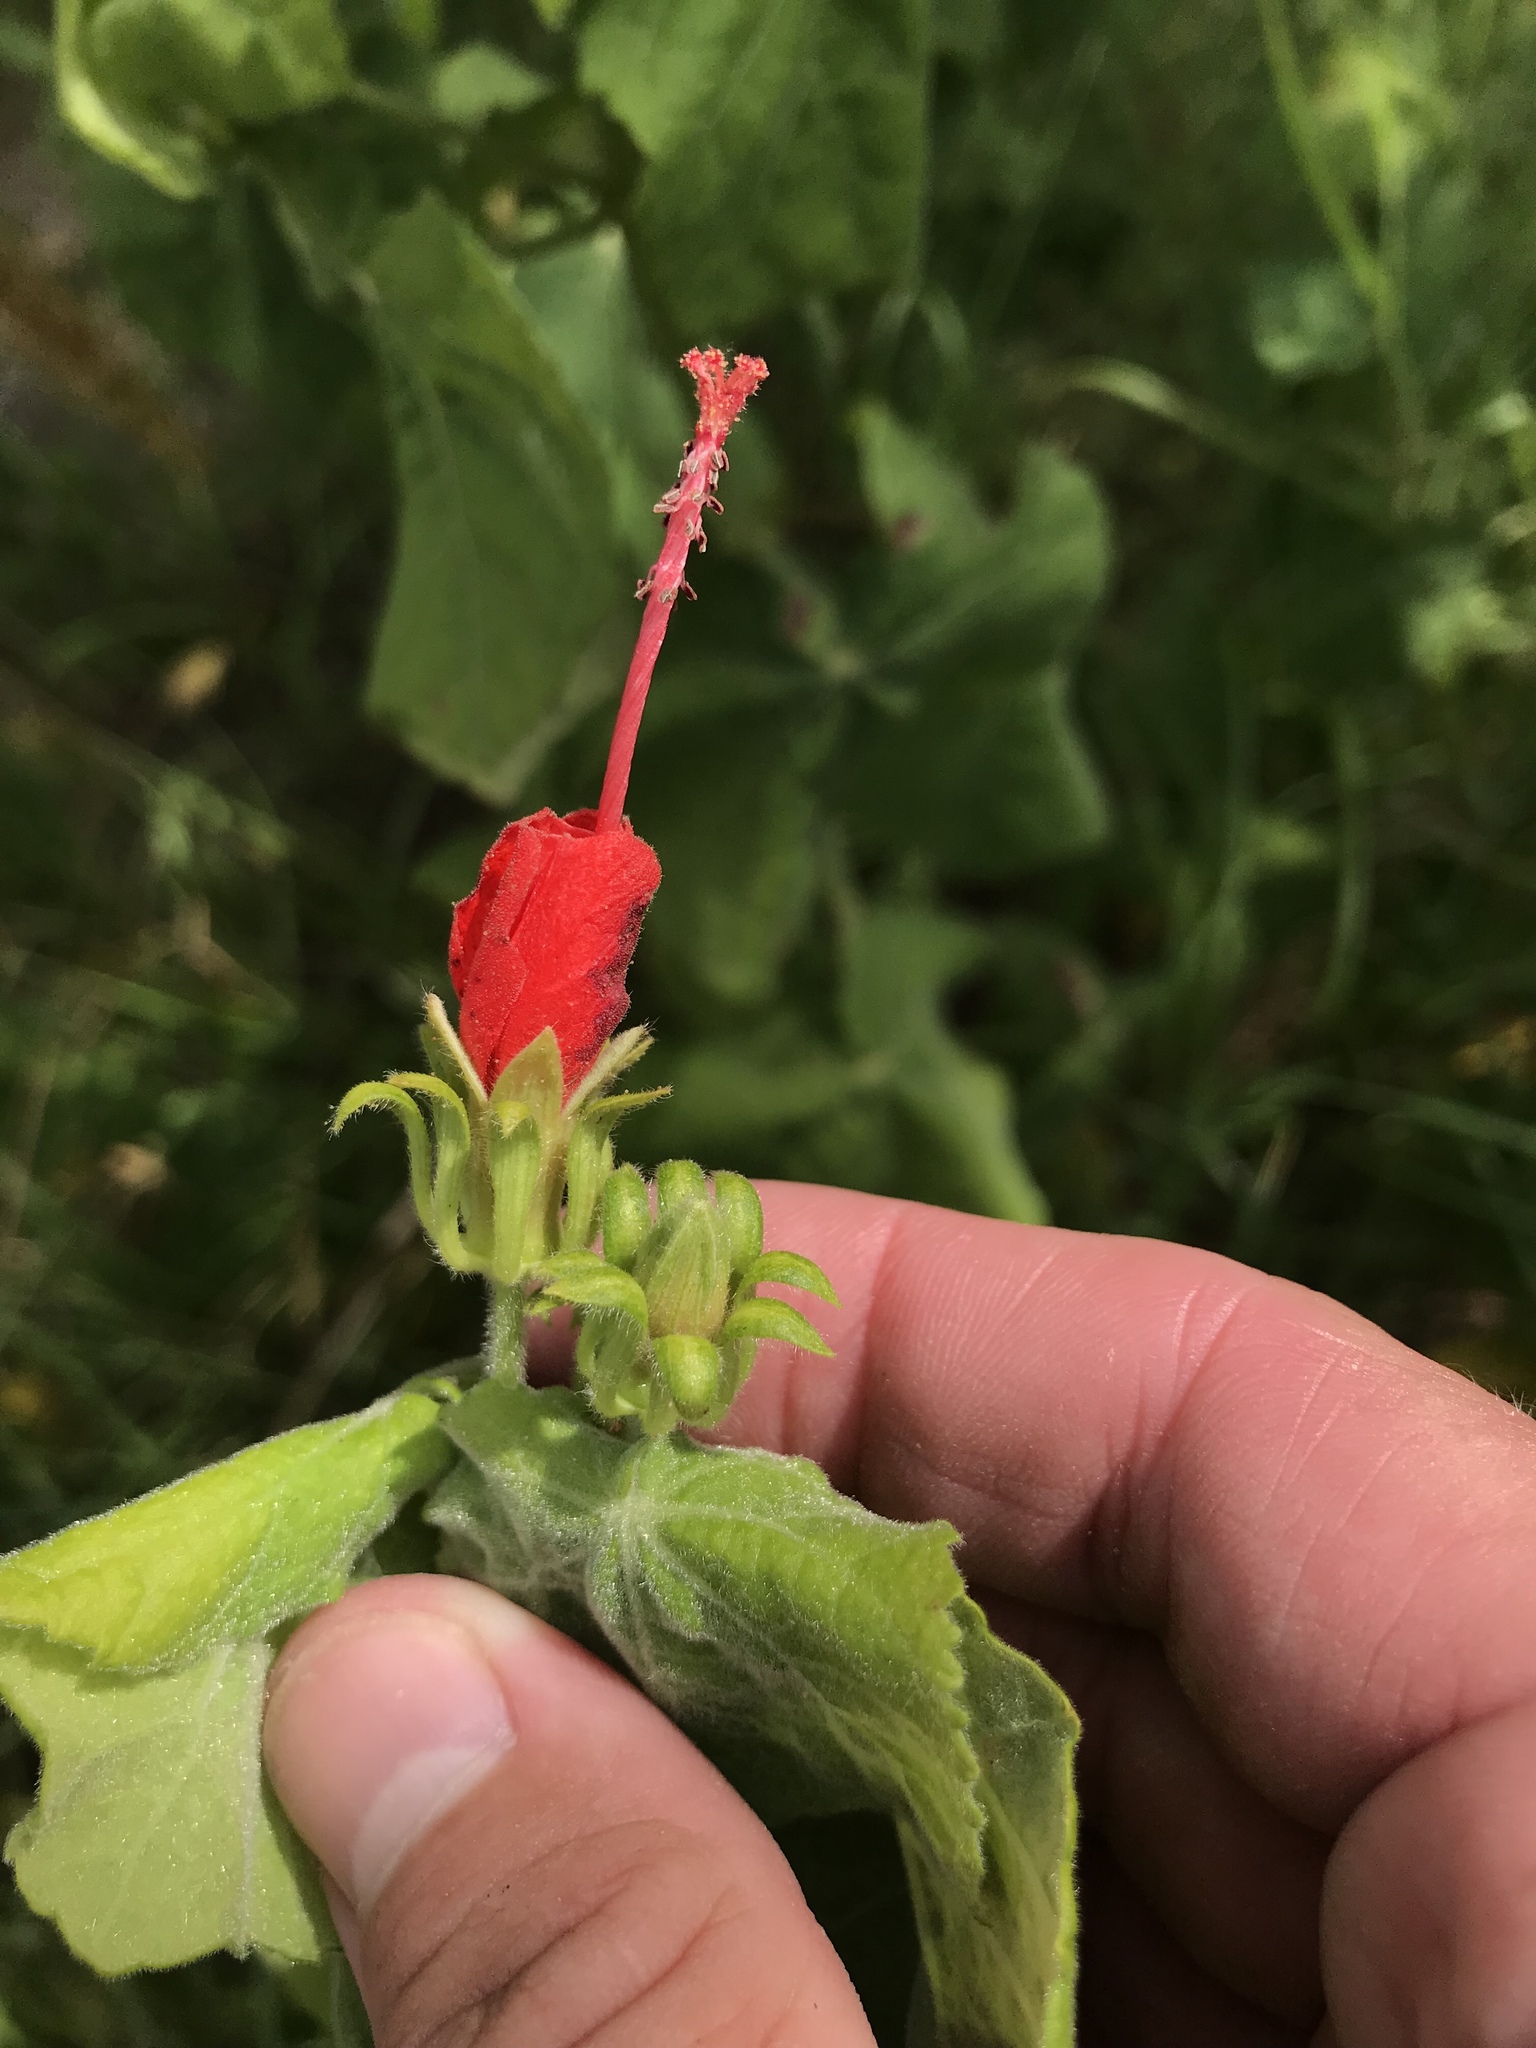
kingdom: Plantae
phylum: Tracheophyta
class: Magnoliopsida
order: Malvales
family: Malvaceae
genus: Malvaviscus
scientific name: Malvaviscus arboreus
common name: Wax mallow
